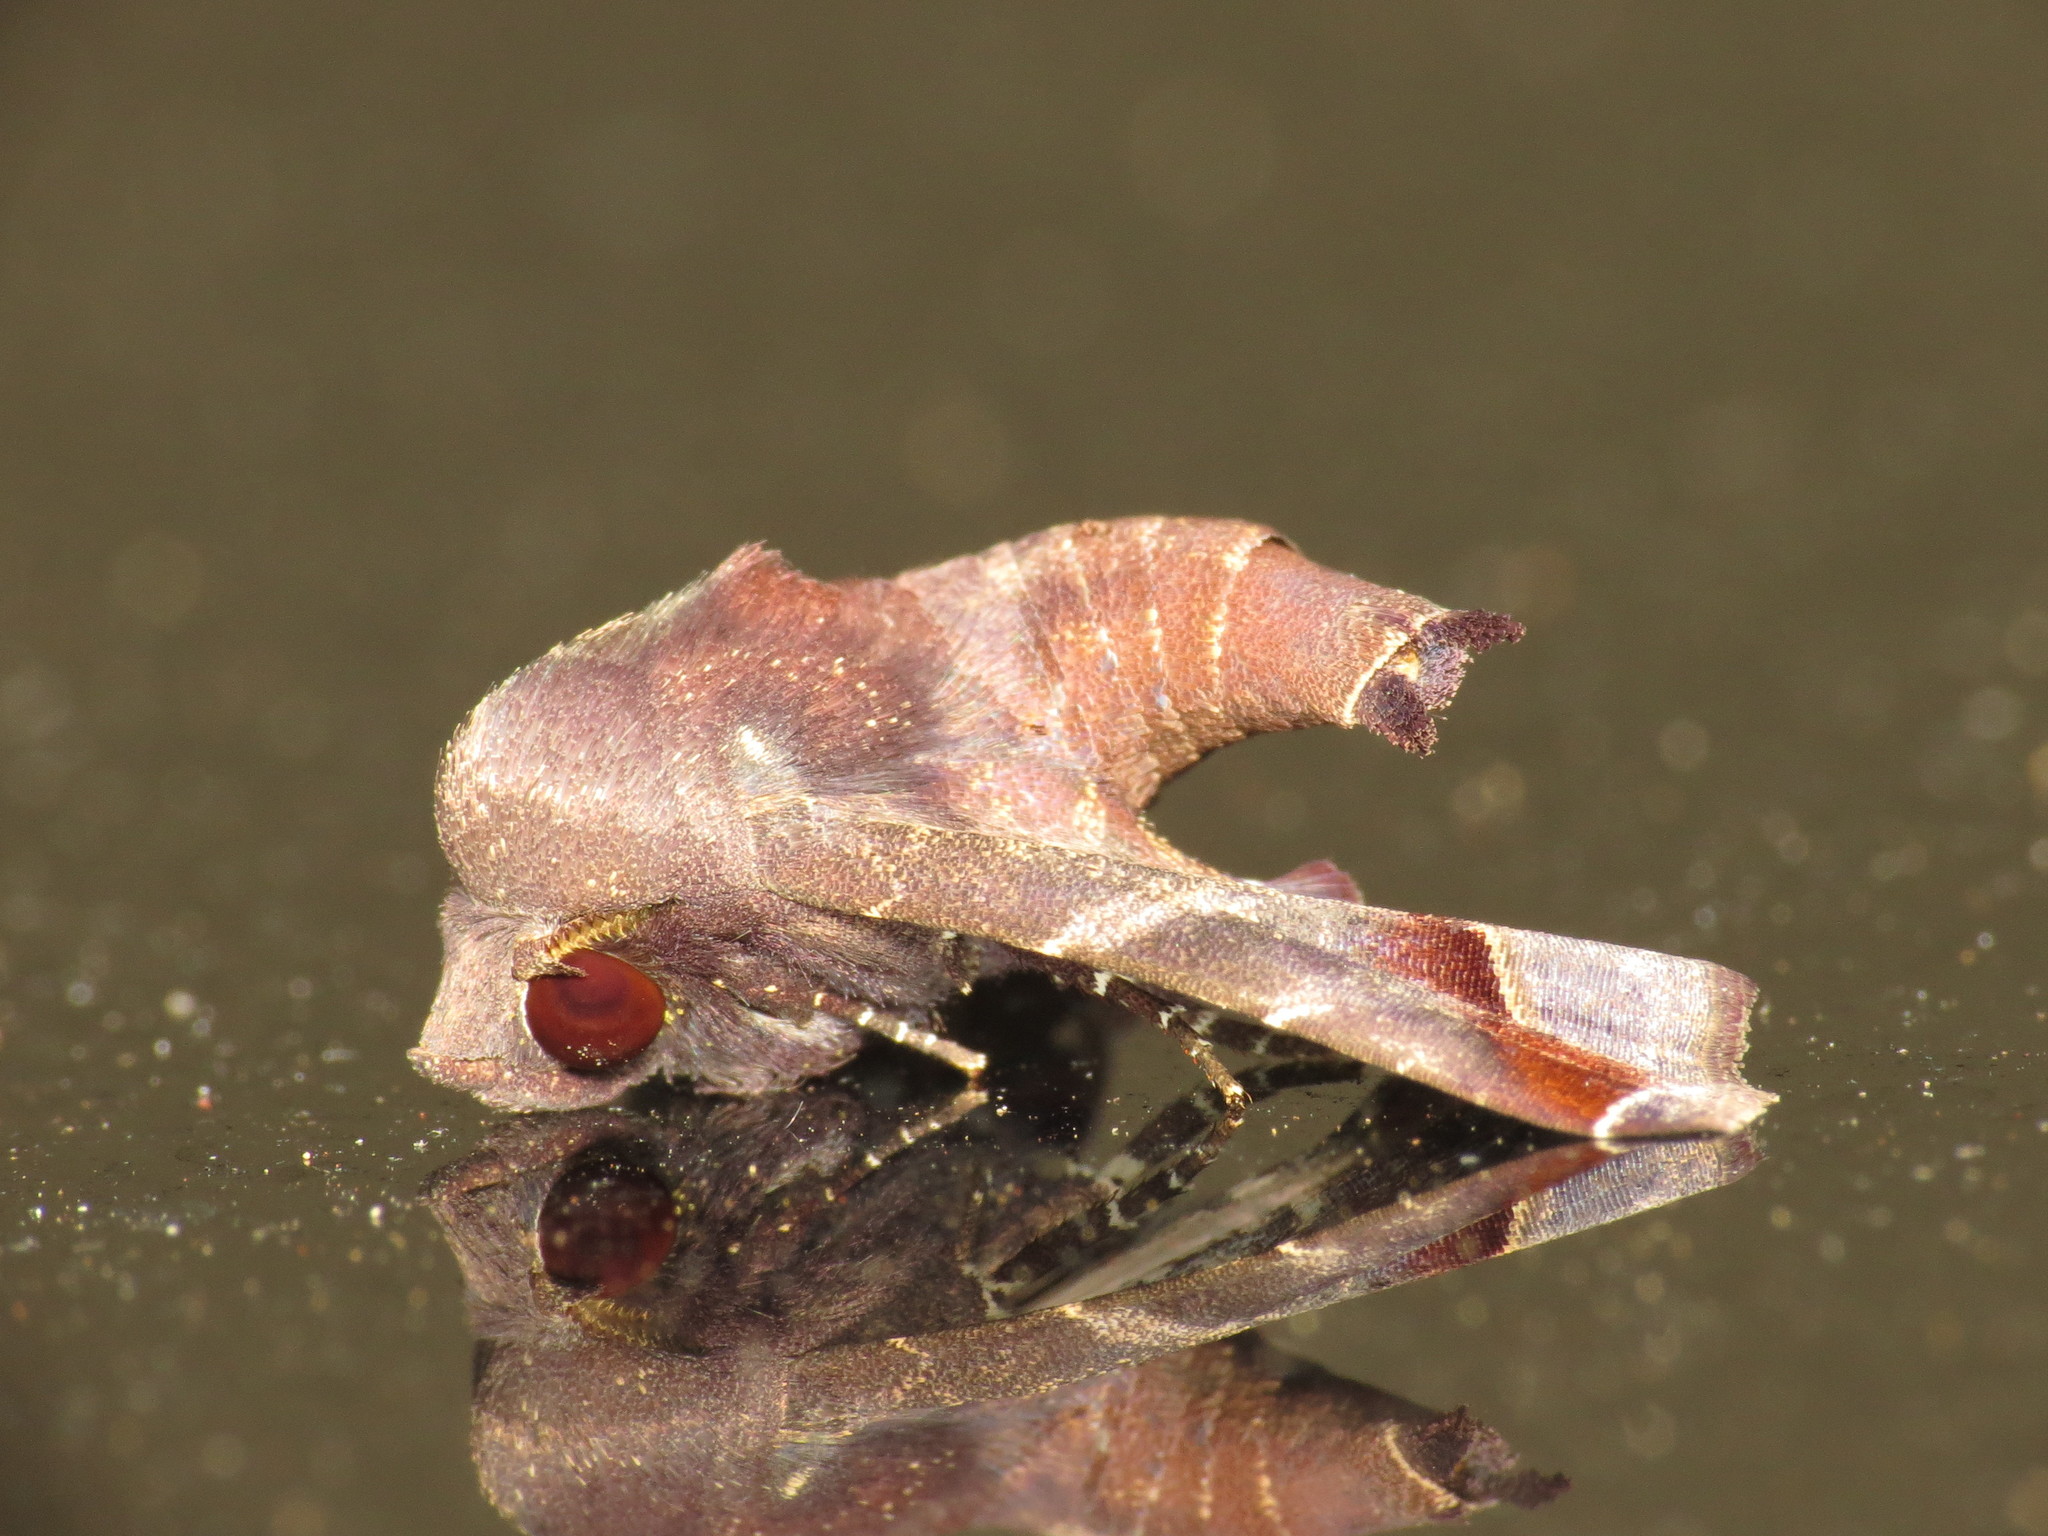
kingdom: Animalia
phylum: Arthropoda
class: Insecta
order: Lepidoptera
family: Euteliidae
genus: Penicillaria
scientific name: Penicillaria jocosatrix
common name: Mango shoot borer
